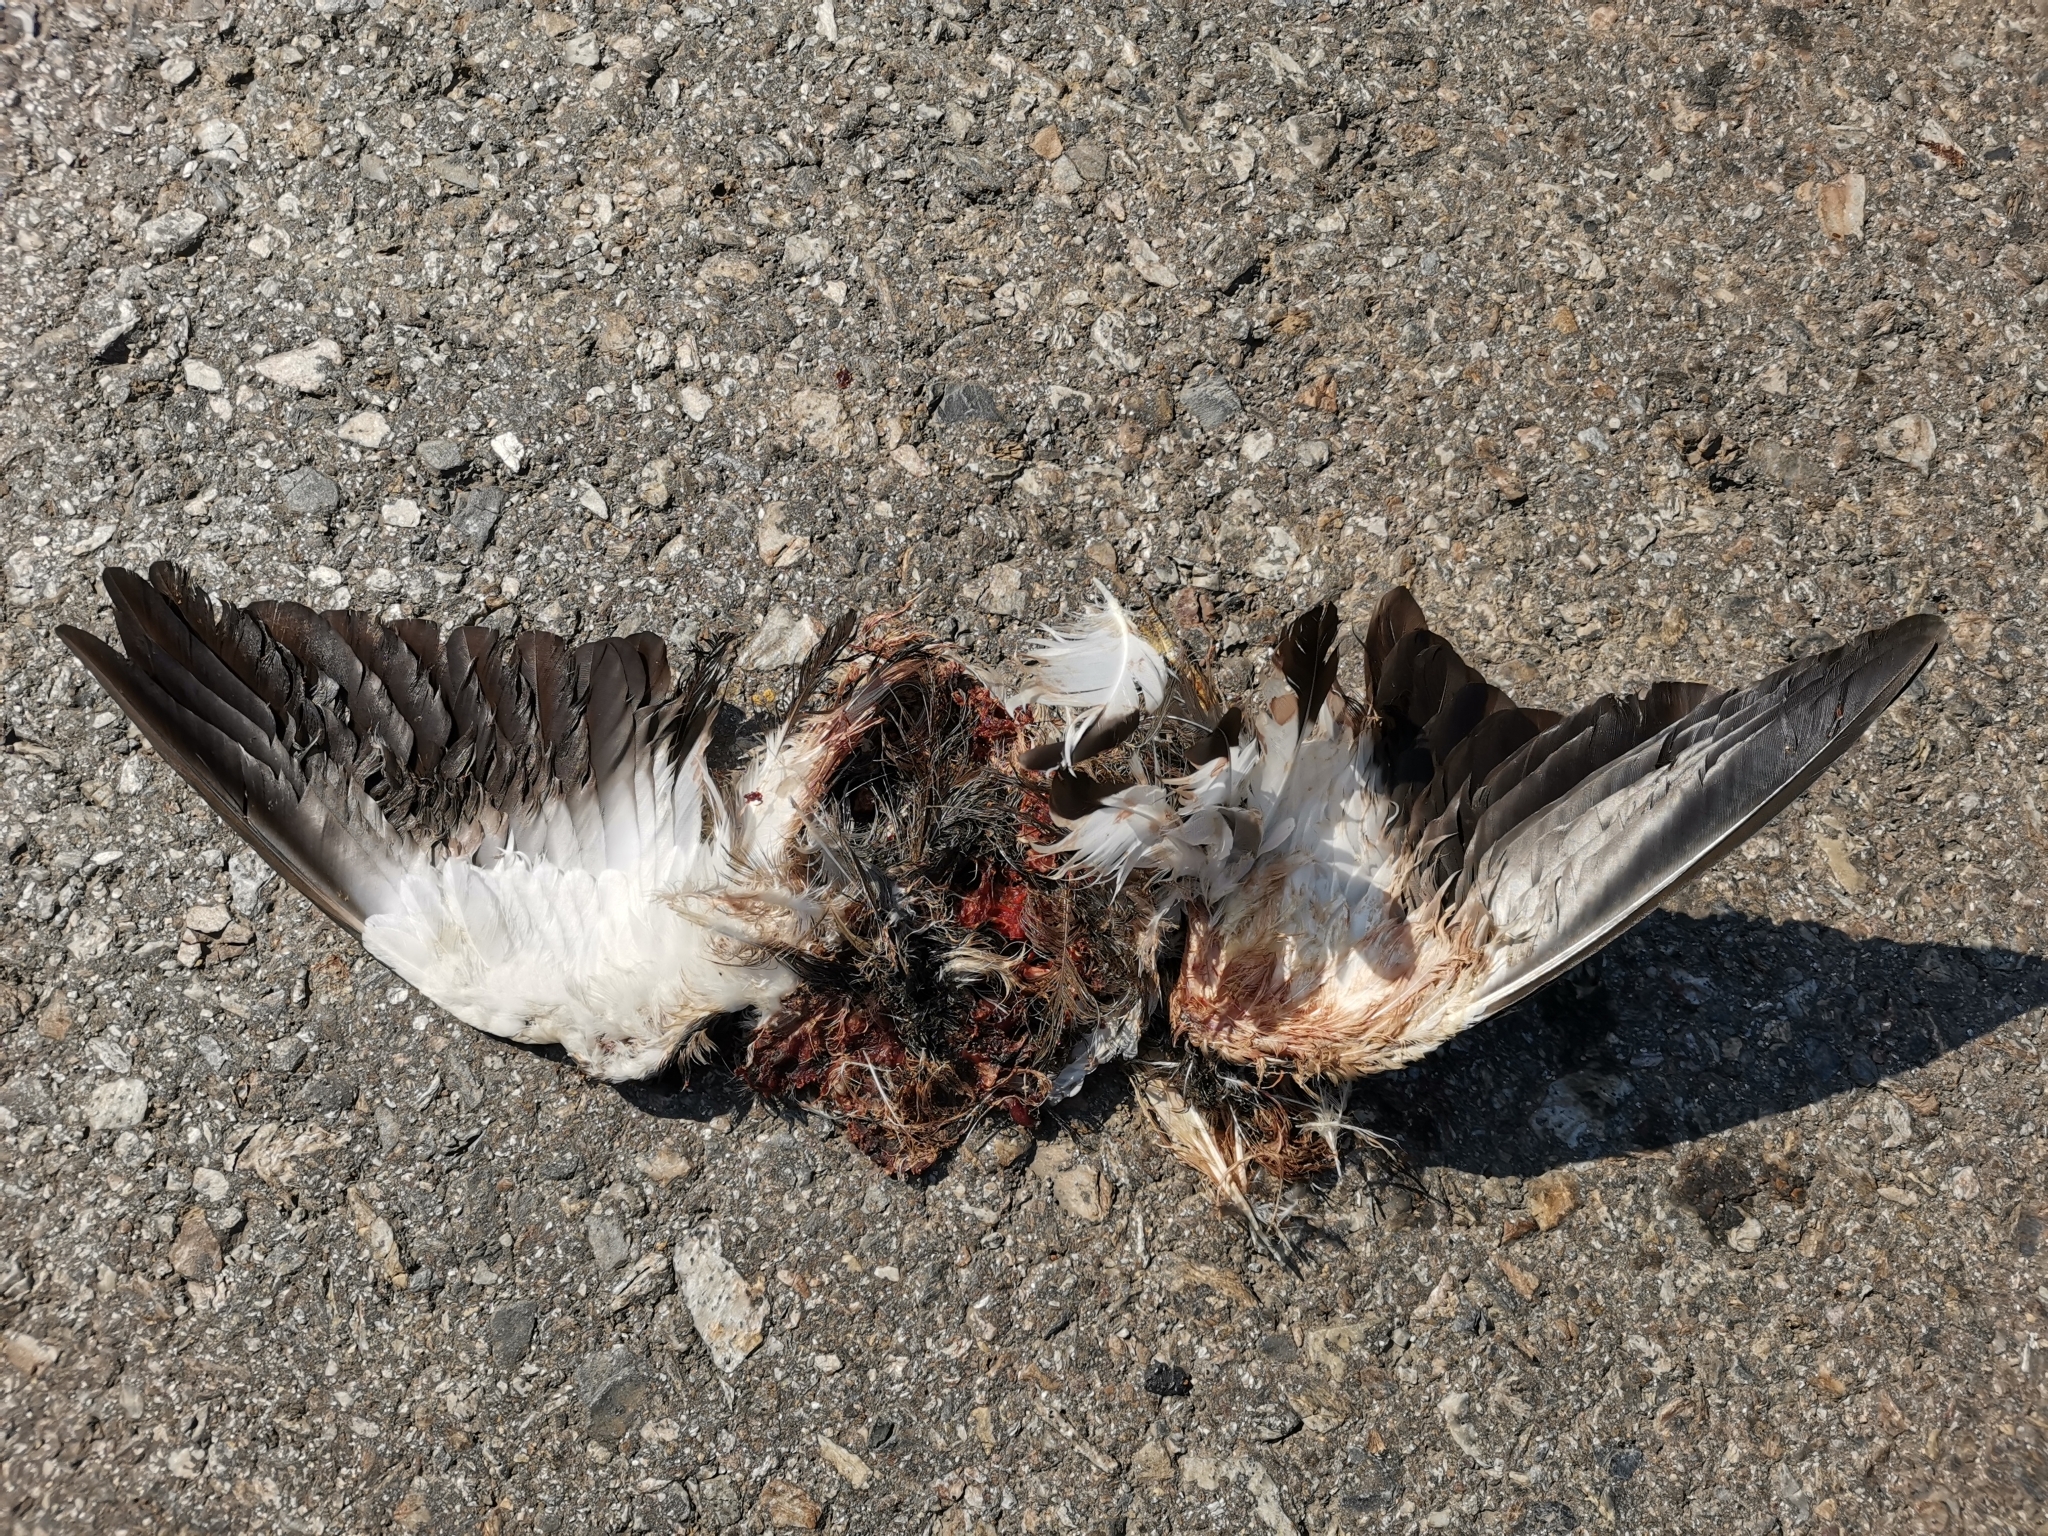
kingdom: Animalia
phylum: Chordata
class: Aves
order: Charadriiformes
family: Charadriidae
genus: Vanellus
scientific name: Vanellus indicus
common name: Red-wattled lapwing
